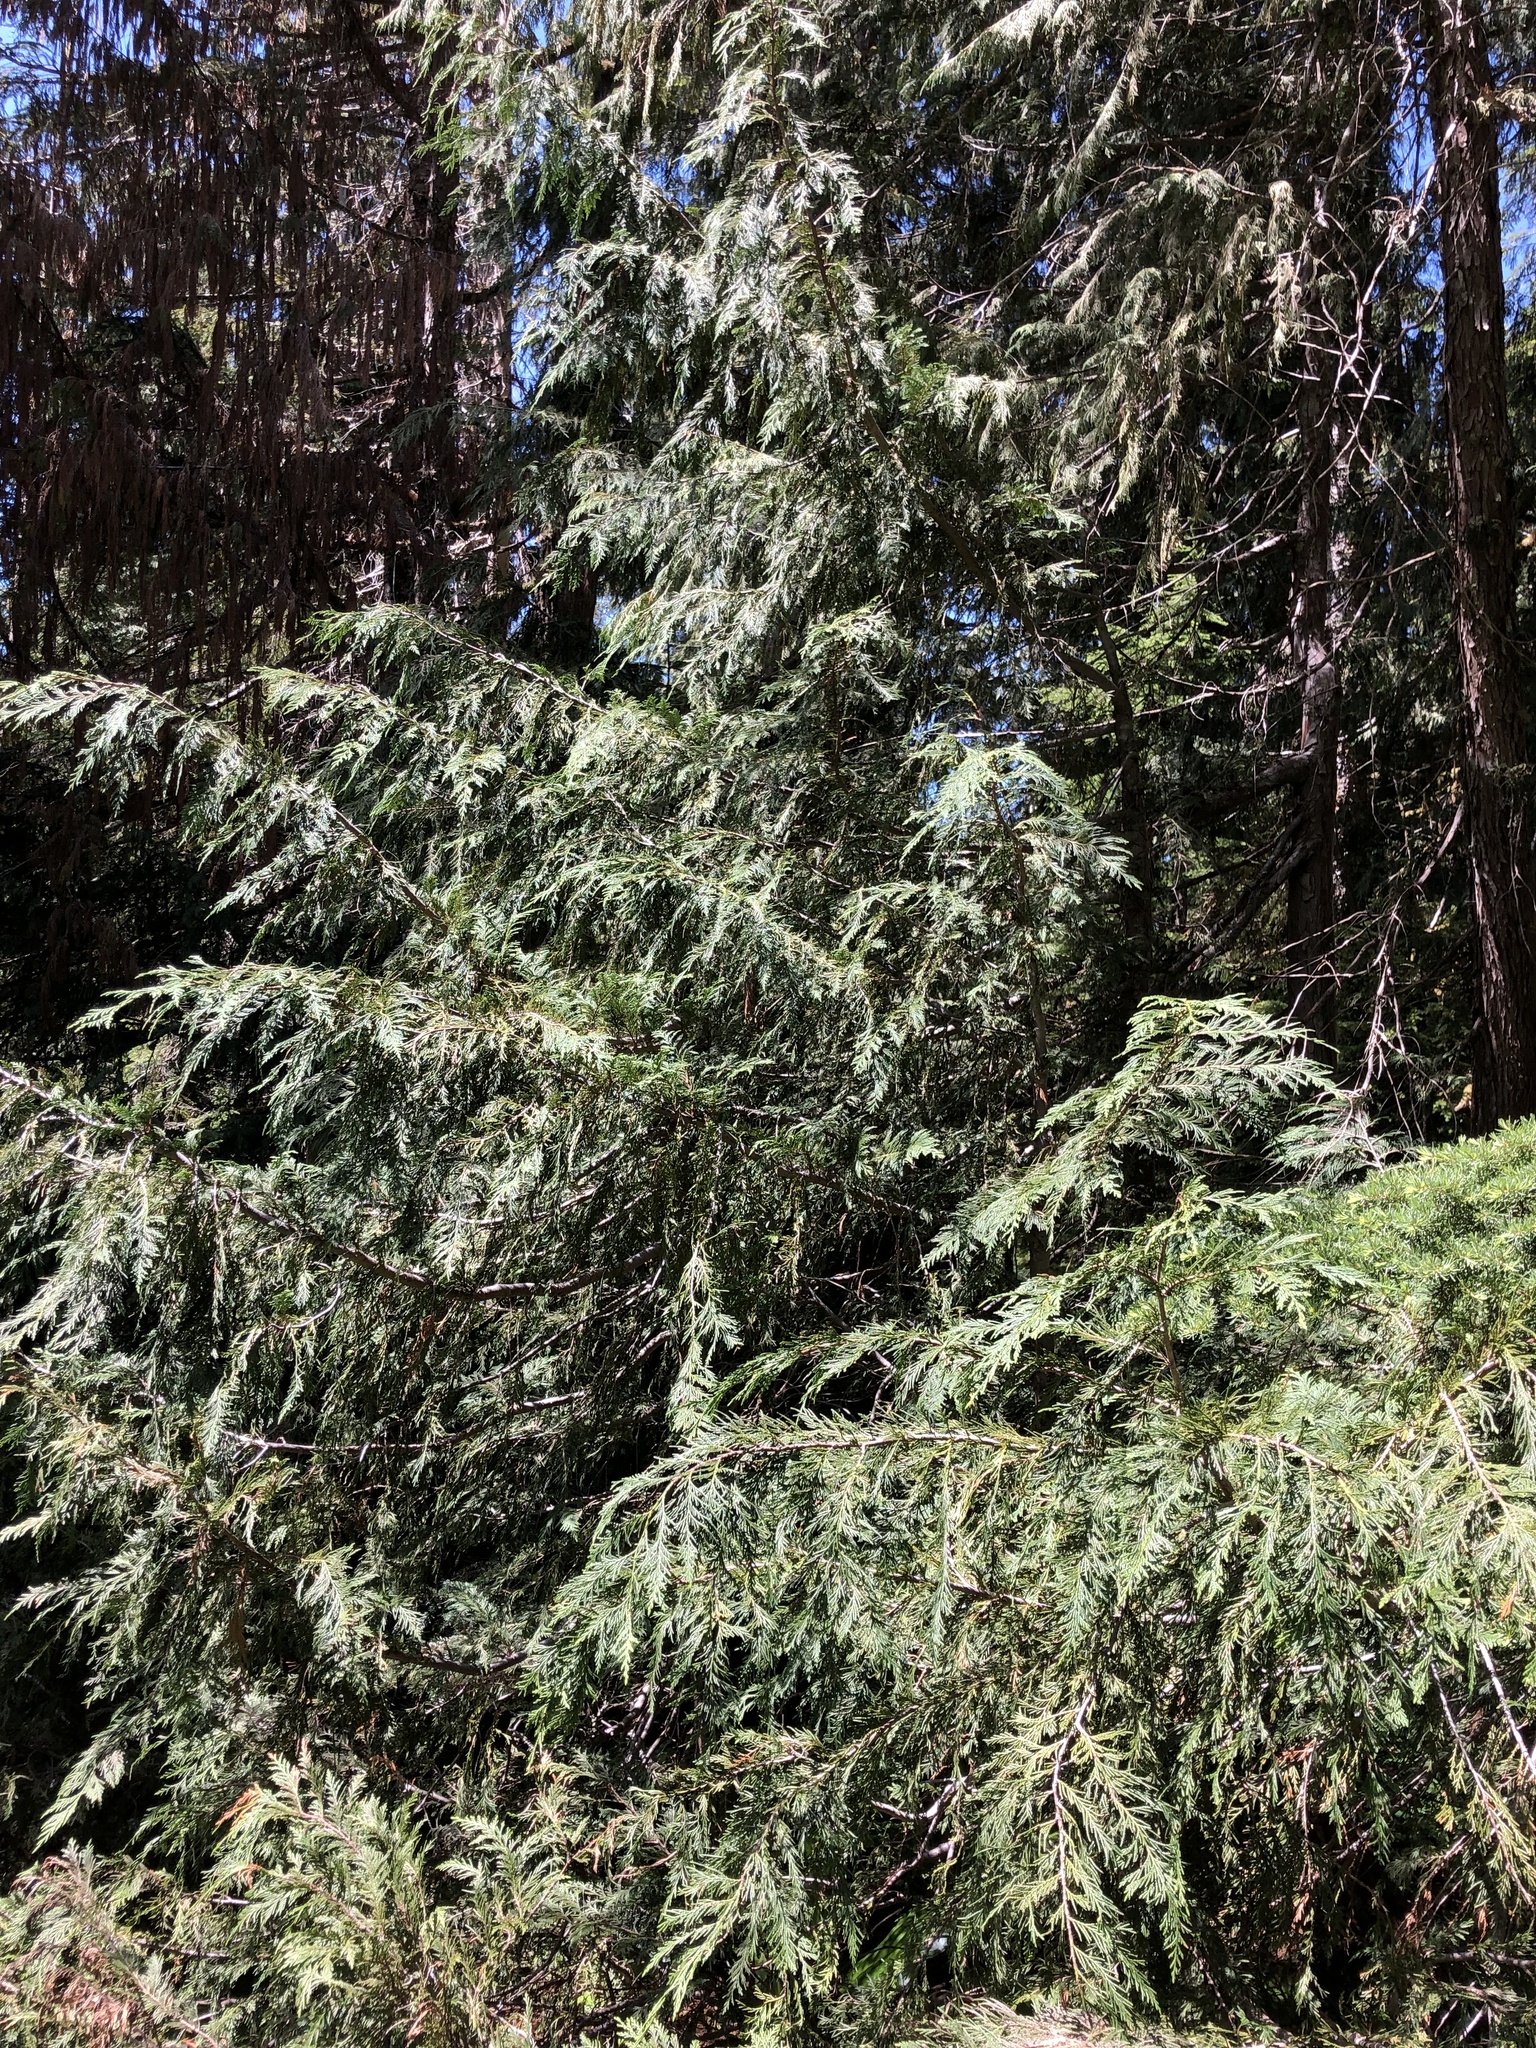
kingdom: Plantae
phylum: Tracheophyta
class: Pinopsida
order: Pinales
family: Cupressaceae
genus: Xanthocyparis
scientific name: Xanthocyparis nootkatensis
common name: Nootka cypress
